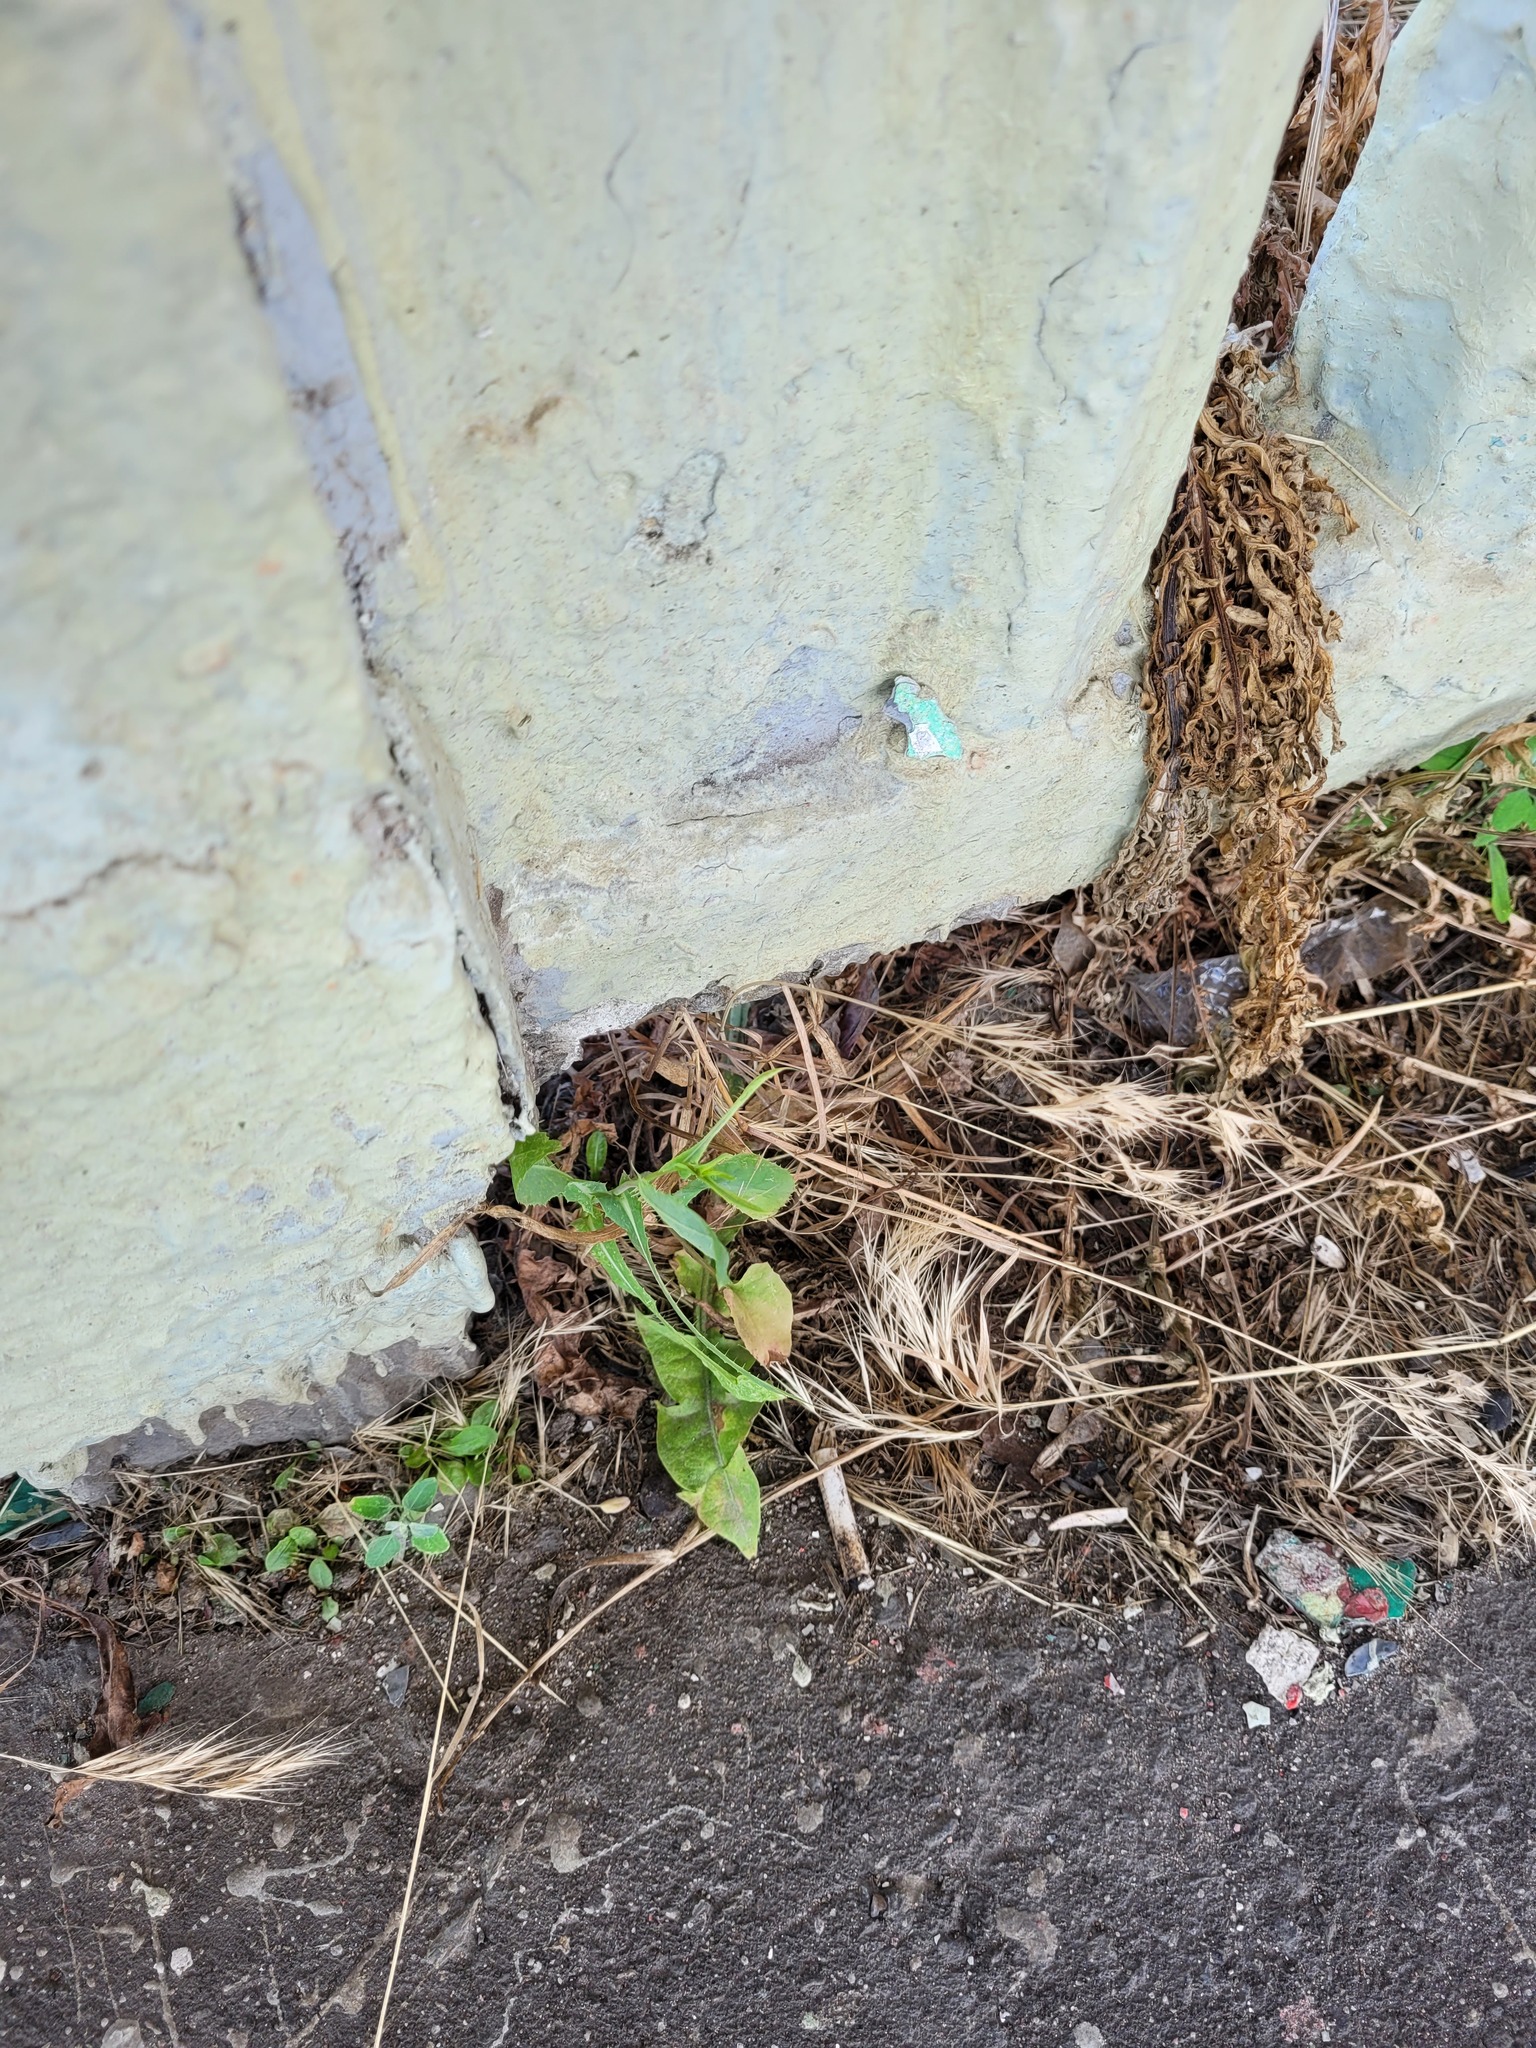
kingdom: Plantae
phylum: Tracheophyta
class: Magnoliopsida
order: Asterales
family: Asteraceae
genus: Lactuca
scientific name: Lactuca serriola
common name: Prickly lettuce
